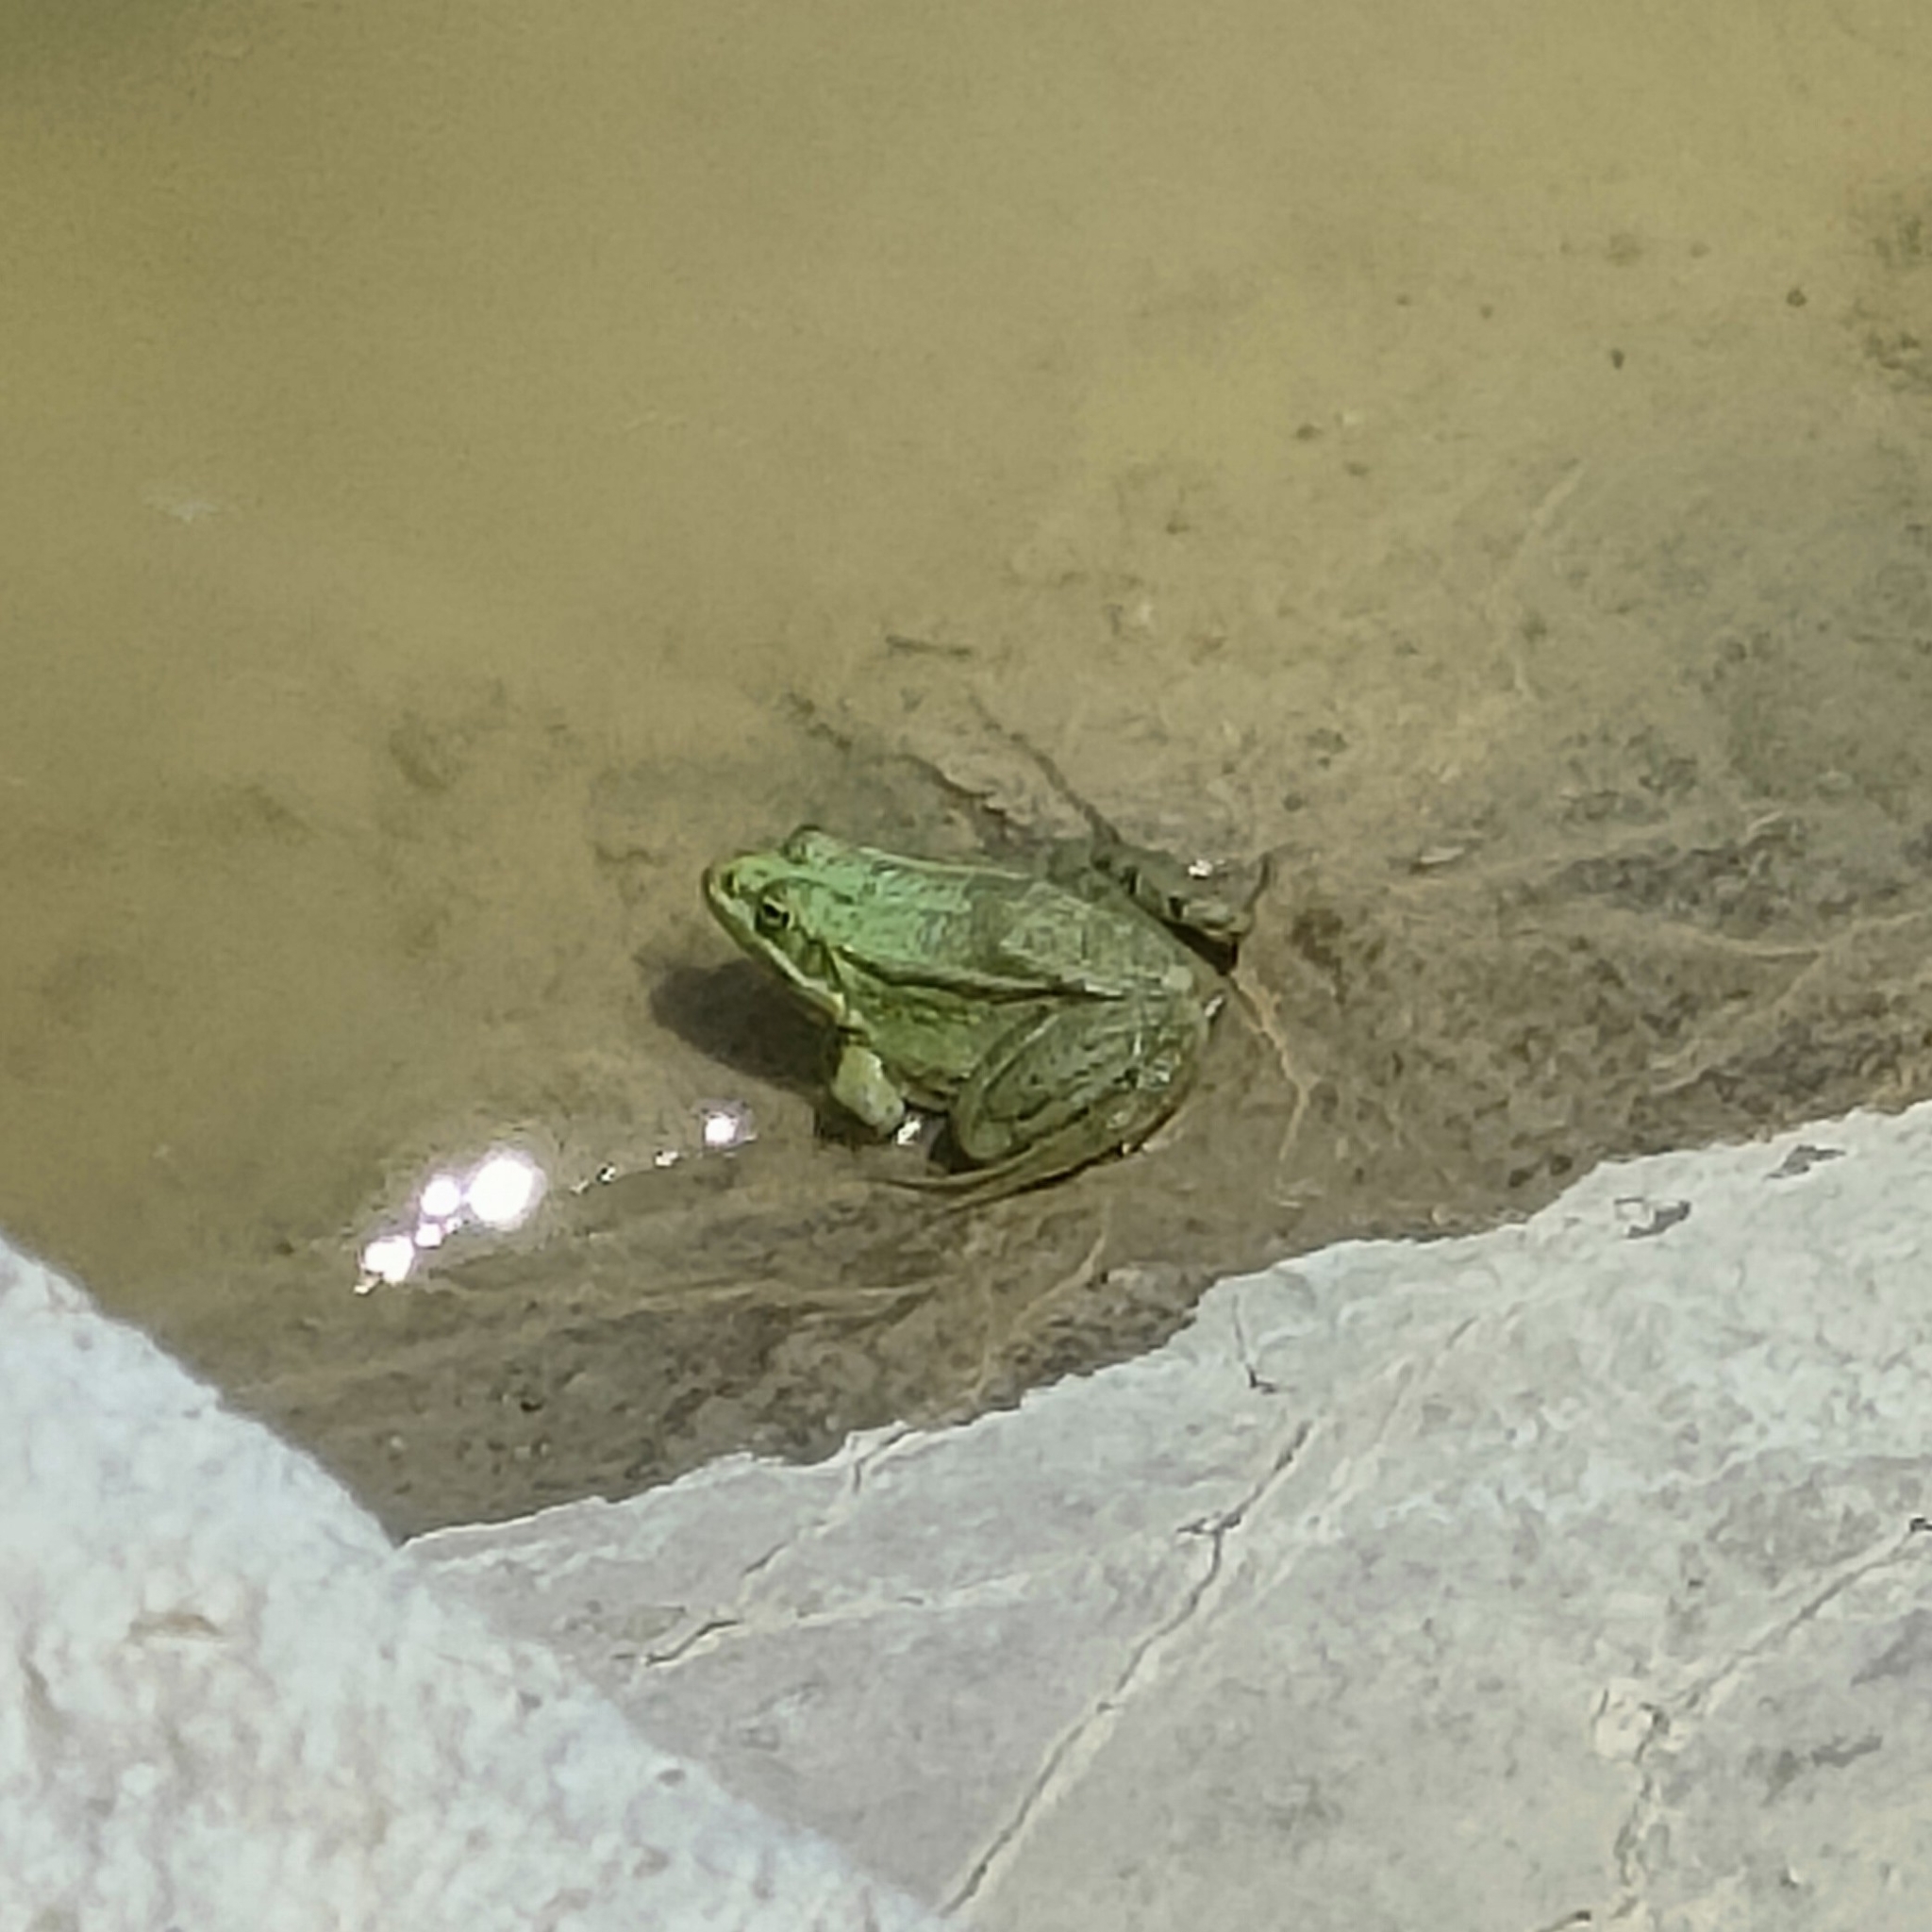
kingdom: Animalia
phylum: Chordata
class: Amphibia
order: Anura
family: Ranidae
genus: Pelophylax
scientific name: Pelophylax ridibundus
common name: Marsh frog
